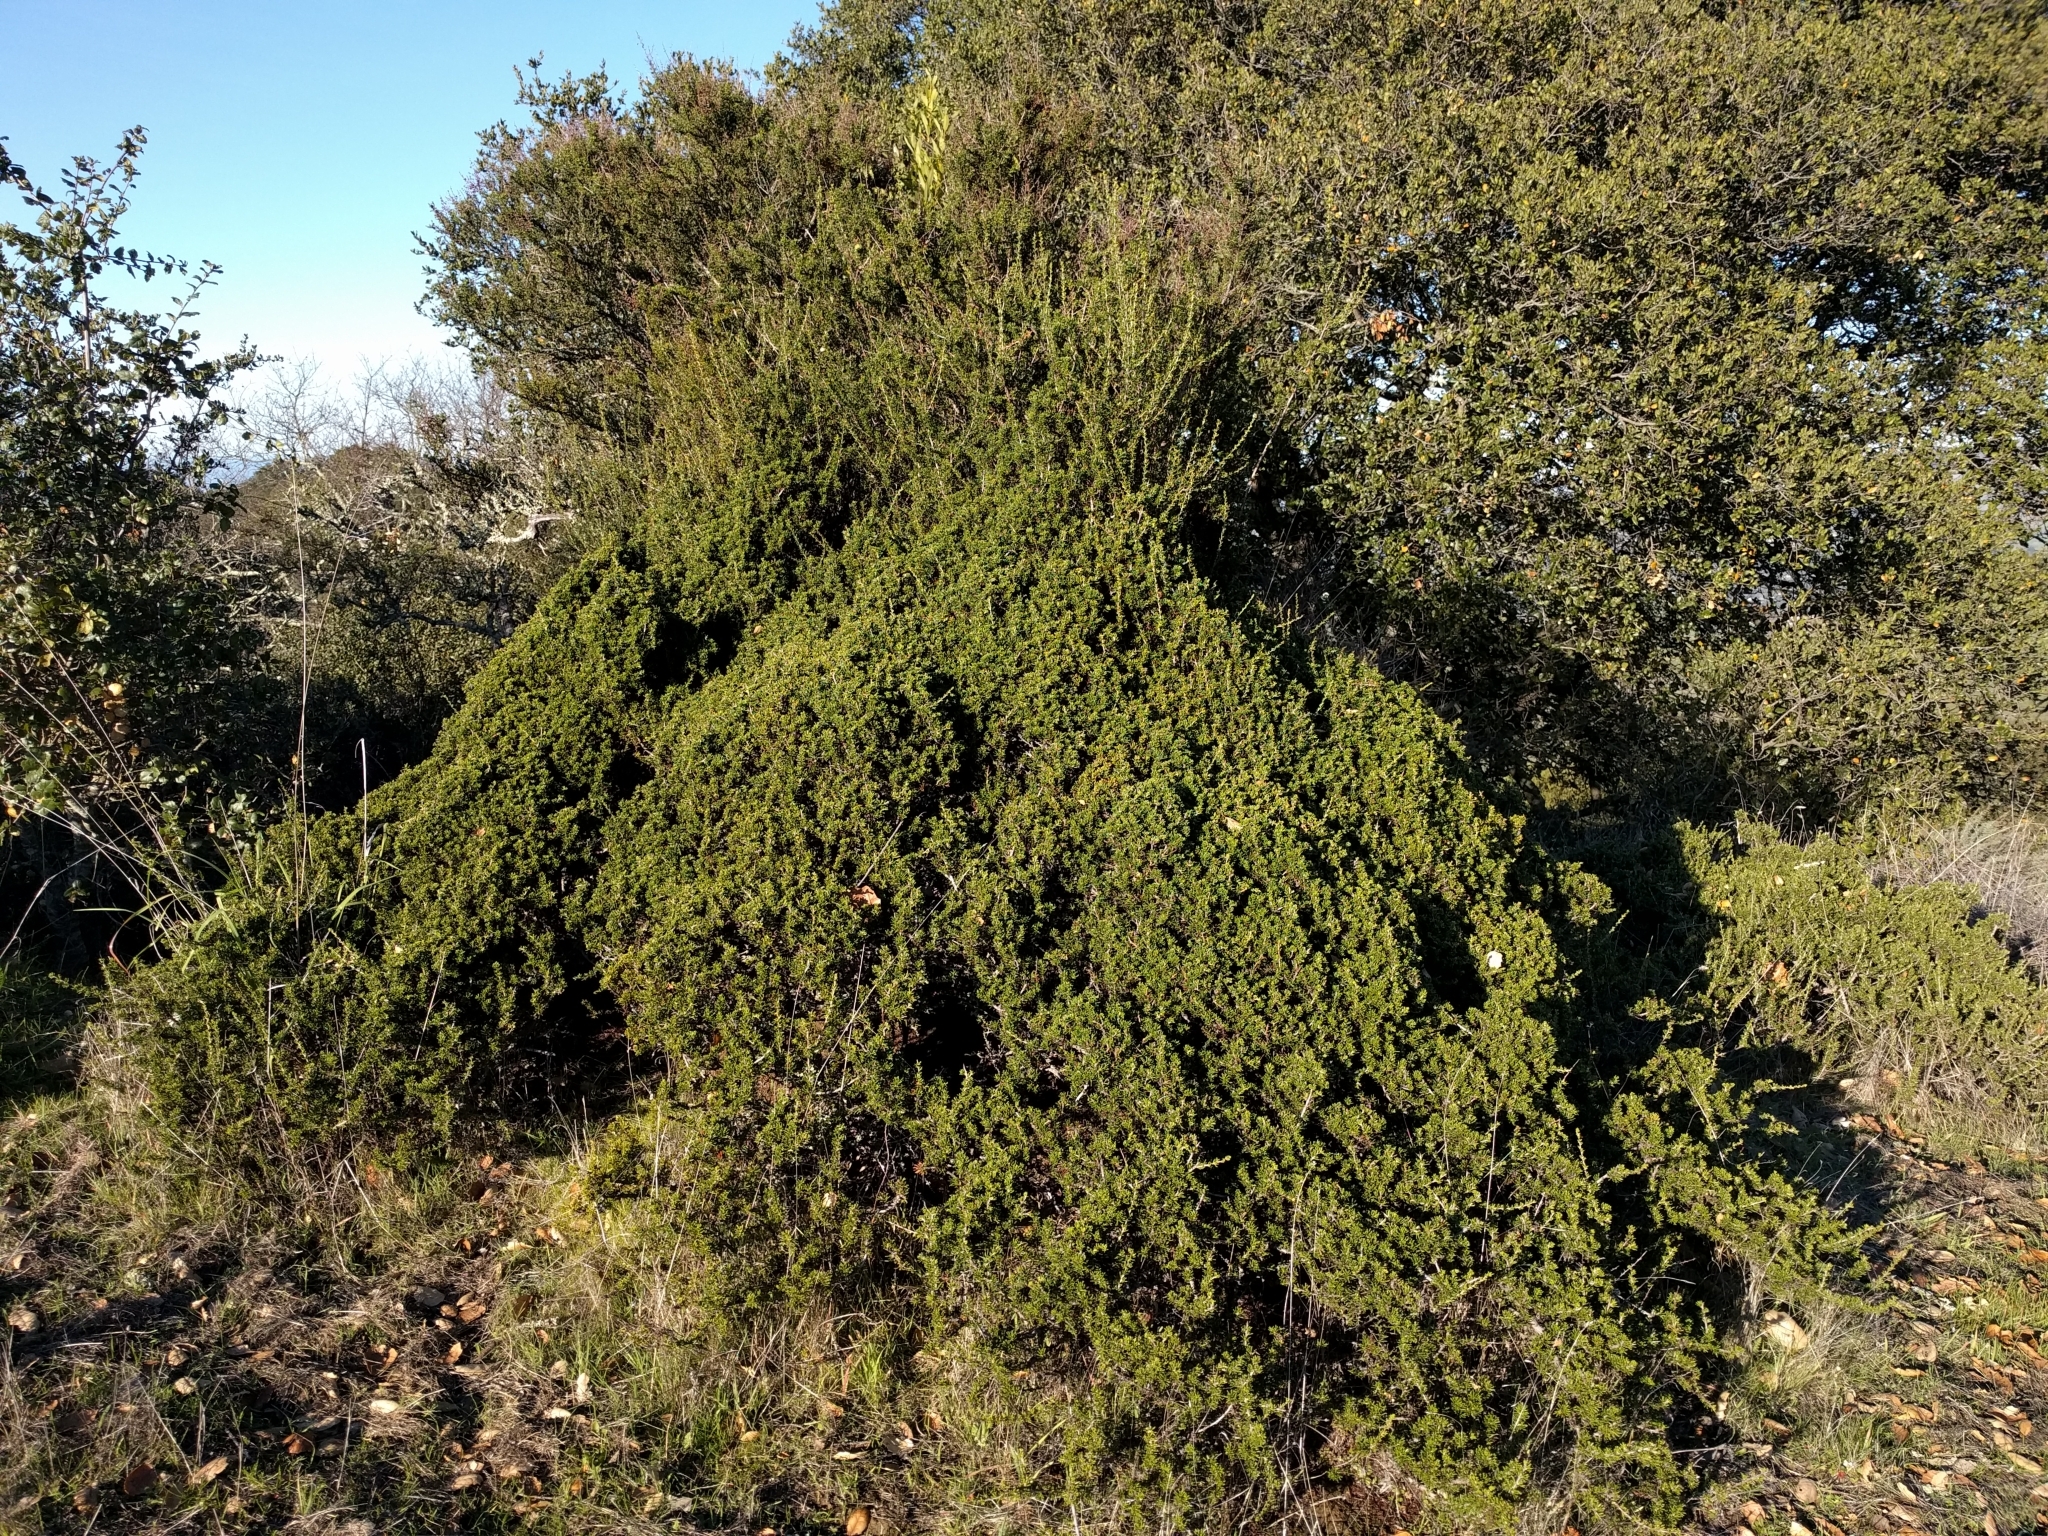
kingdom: Plantae
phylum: Tracheophyta
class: Magnoliopsida
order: Rosales
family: Rosaceae
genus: Adenostoma
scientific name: Adenostoma fasciculatum
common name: Chamise
